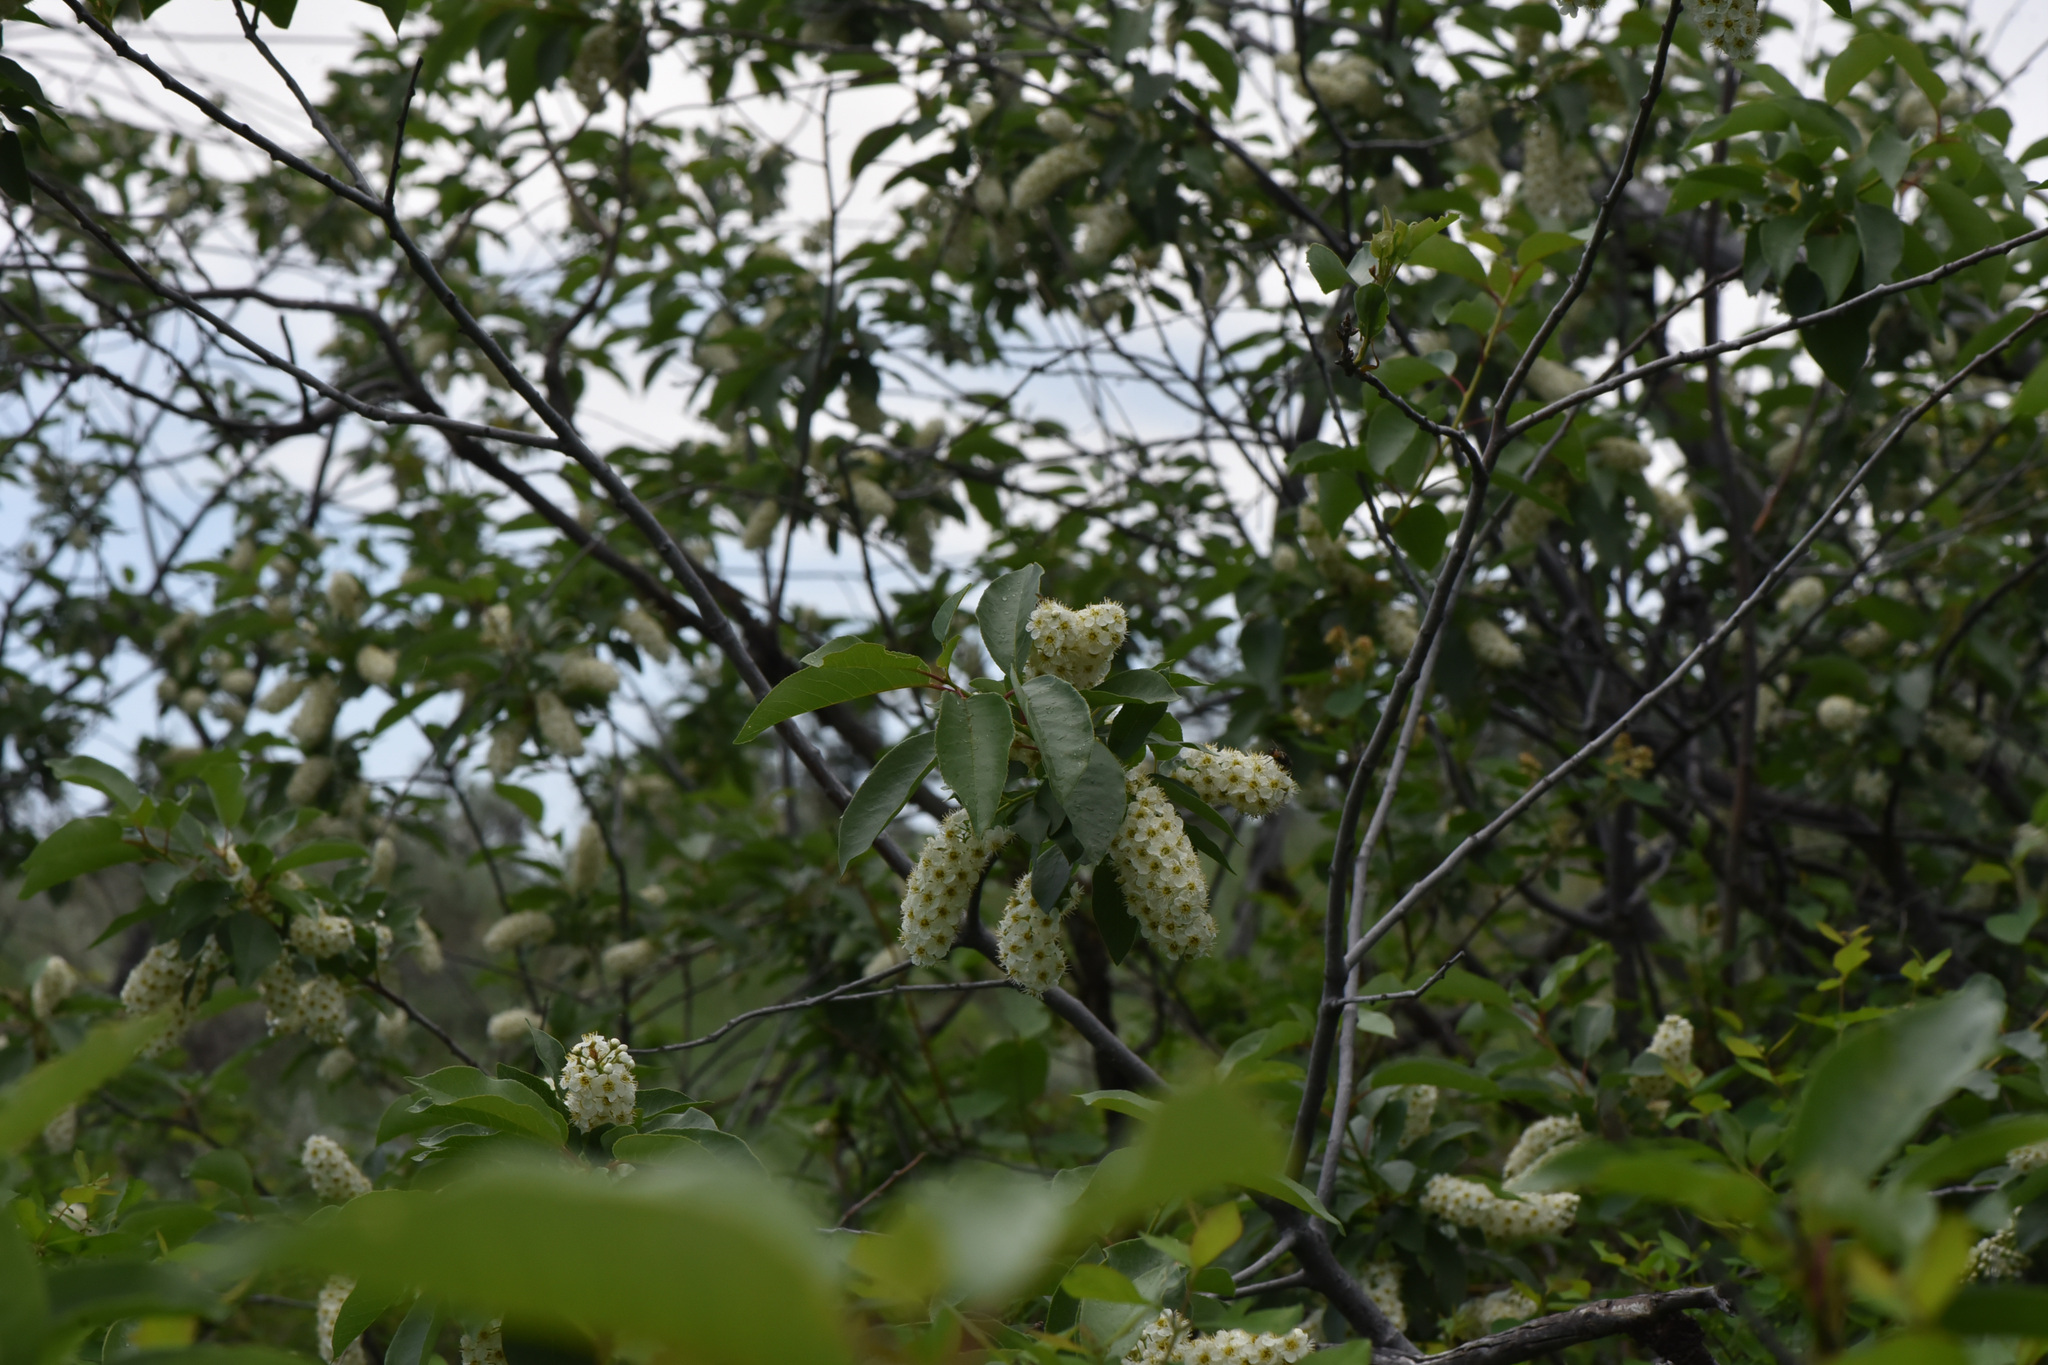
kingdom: Plantae
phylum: Tracheophyta
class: Magnoliopsida
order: Rosales
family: Rosaceae
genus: Prunus
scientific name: Prunus virginiana
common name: Chokecherry
